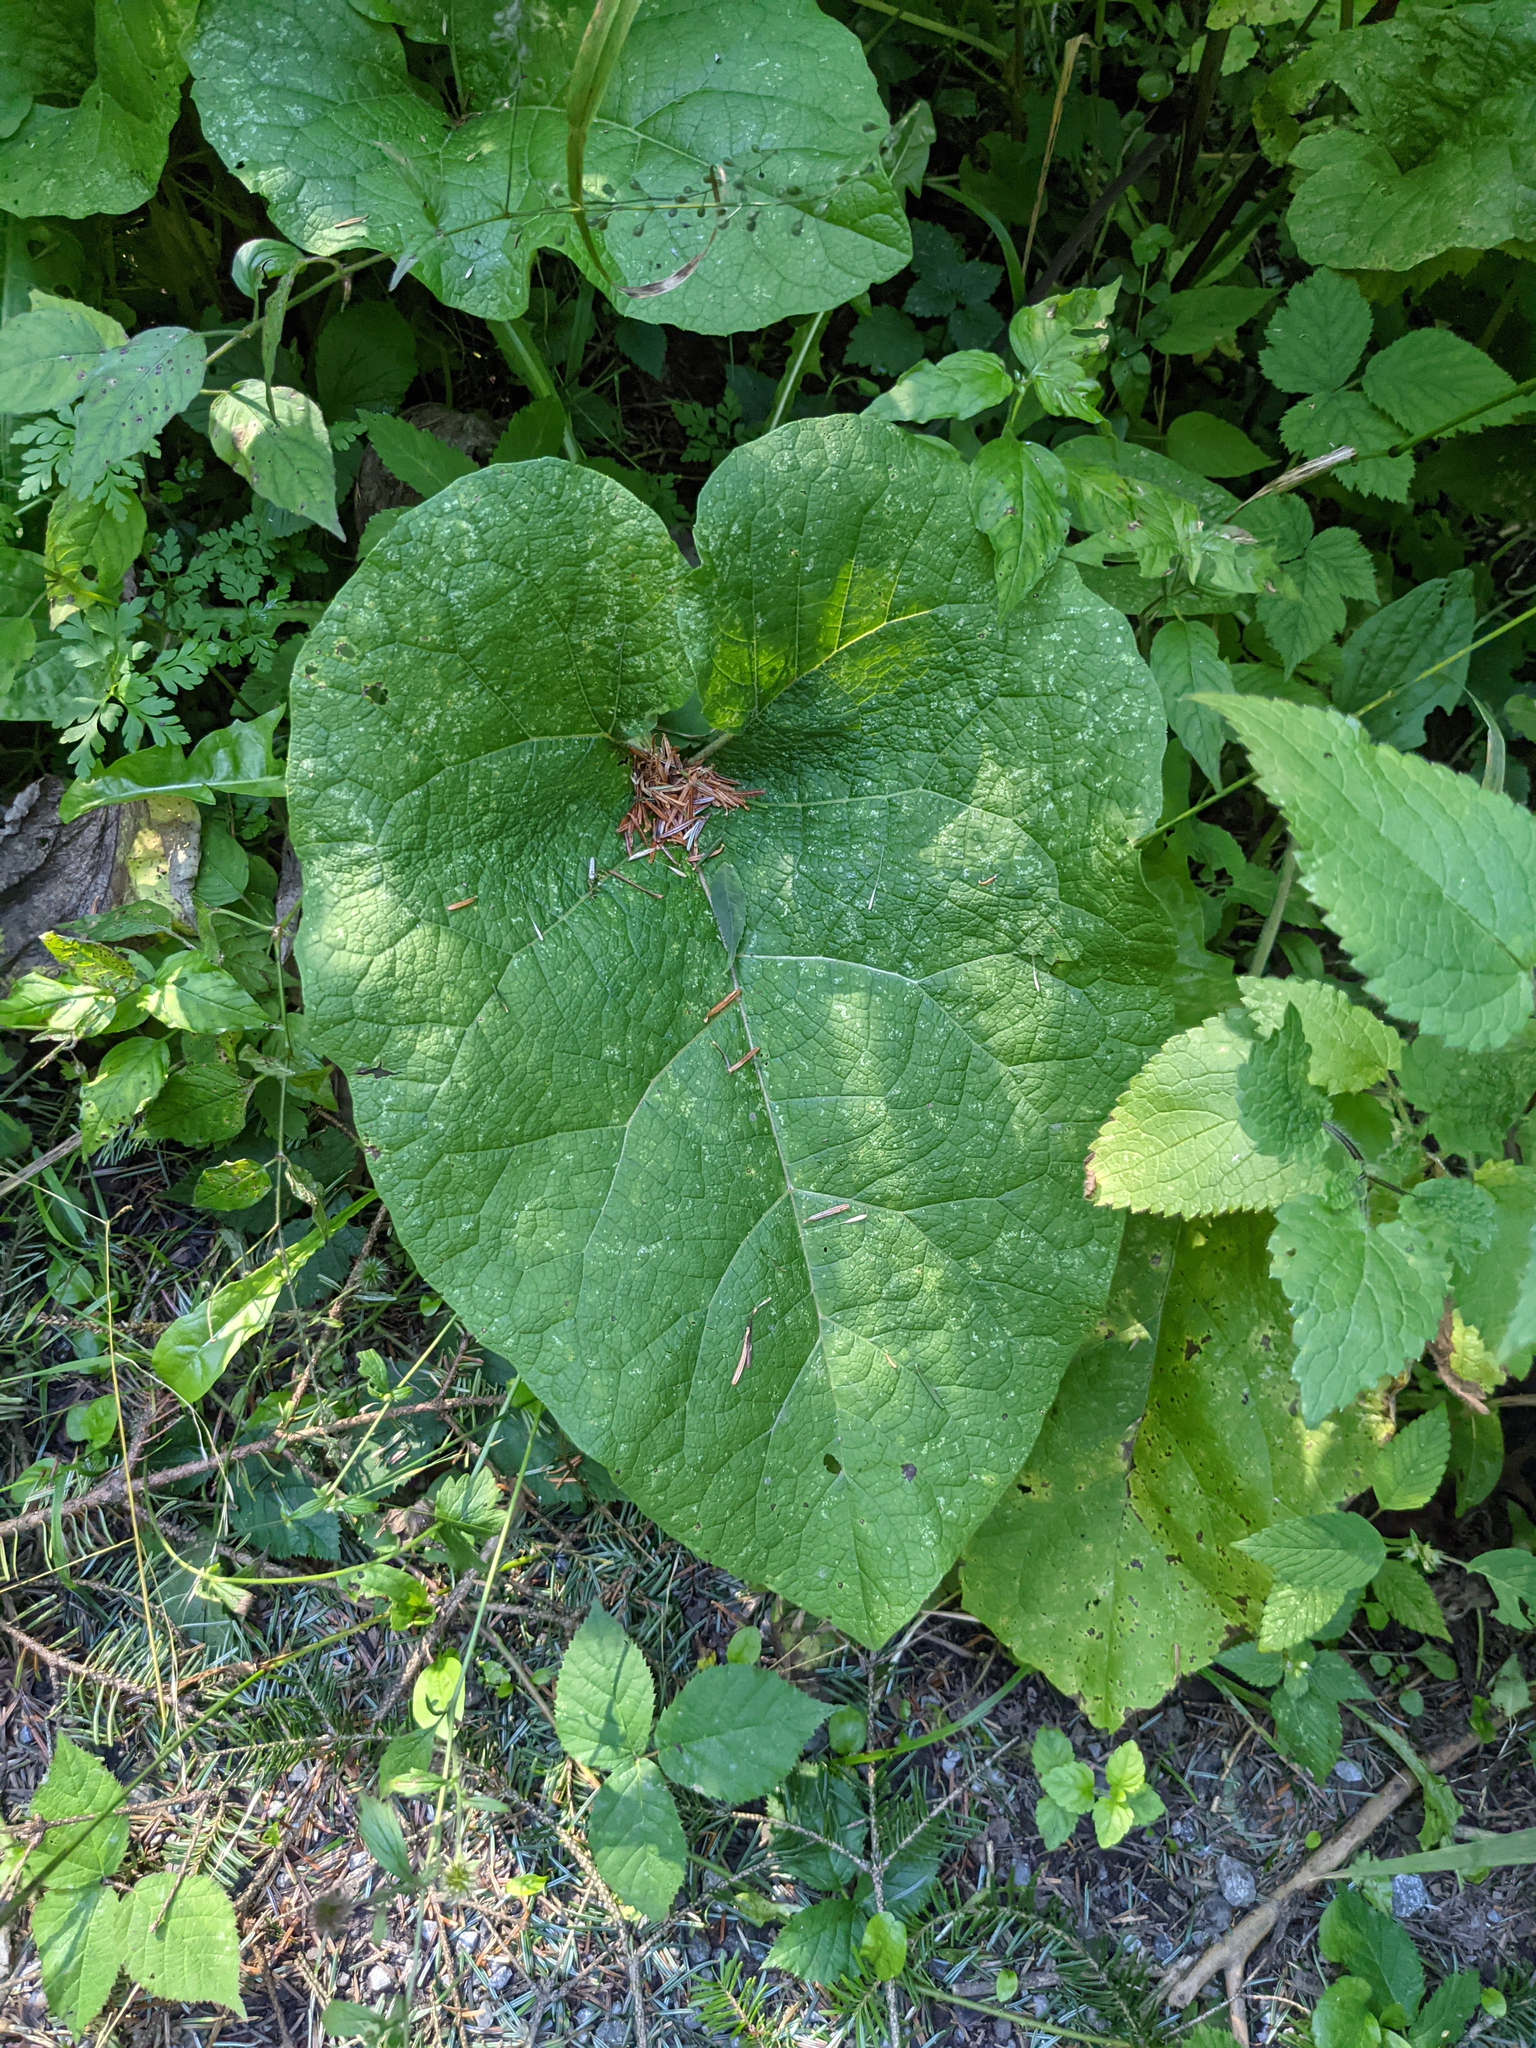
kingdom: Plantae
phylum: Tracheophyta
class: Magnoliopsida
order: Asterales
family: Asteraceae
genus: Arctium
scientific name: Arctium lappa
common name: Greater burdock
